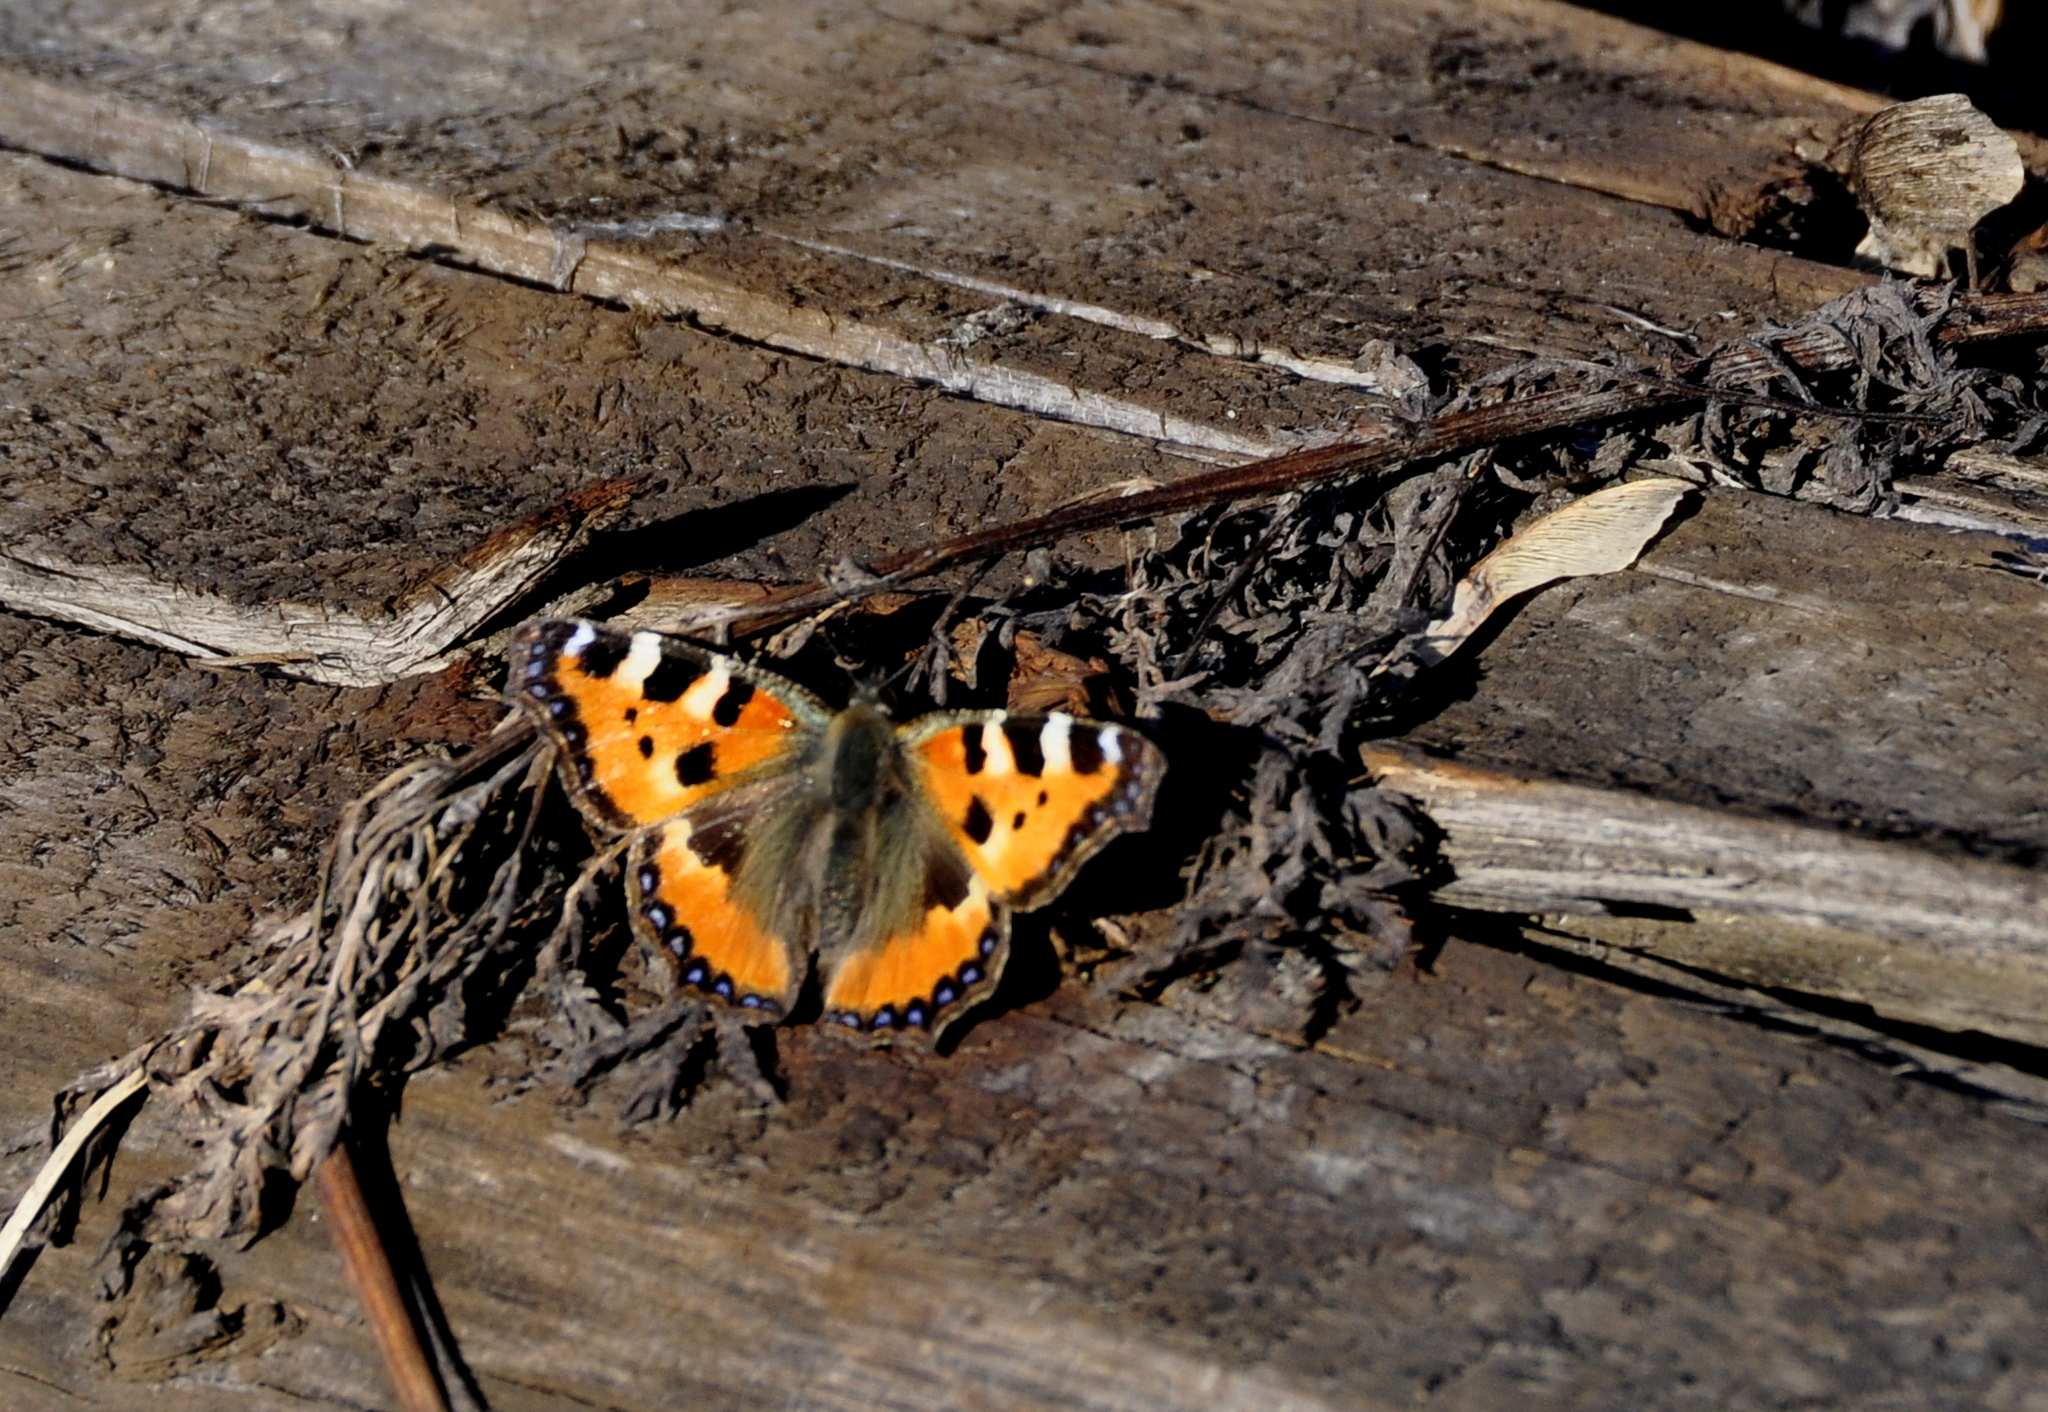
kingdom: Animalia
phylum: Arthropoda
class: Insecta
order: Lepidoptera
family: Nymphalidae
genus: Aglais
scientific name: Aglais urticae
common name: Small tortoiseshell
